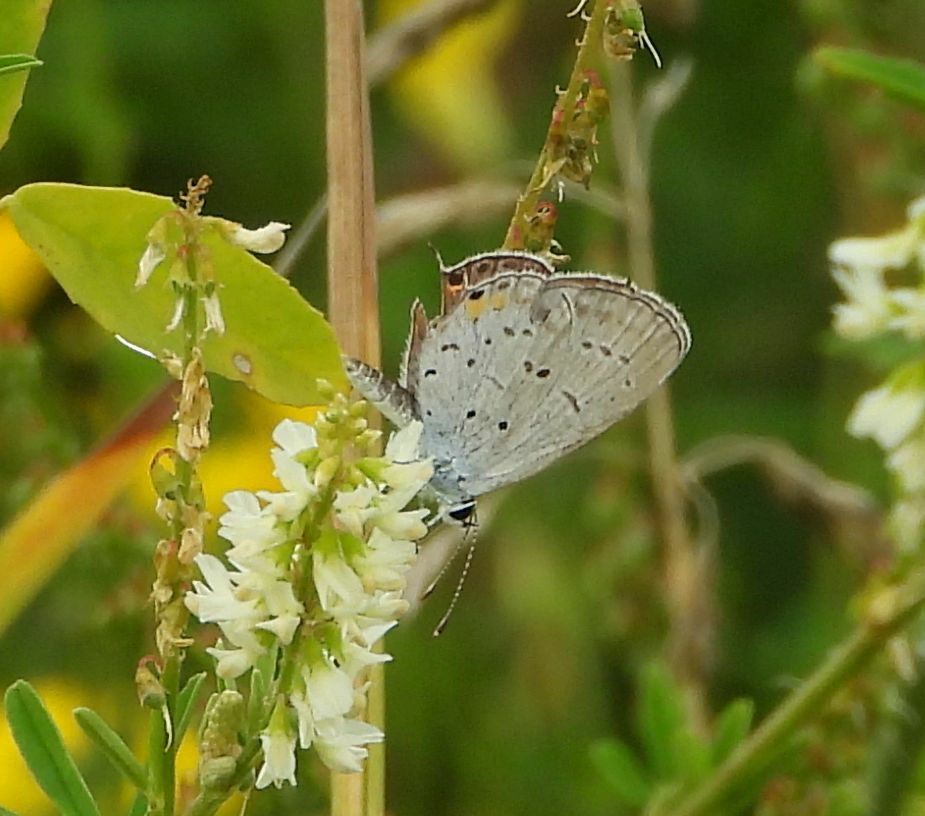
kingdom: Animalia
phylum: Arthropoda
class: Insecta
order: Lepidoptera
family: Lycaenidae
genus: Elkalyce
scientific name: Elkalyce comyntas
